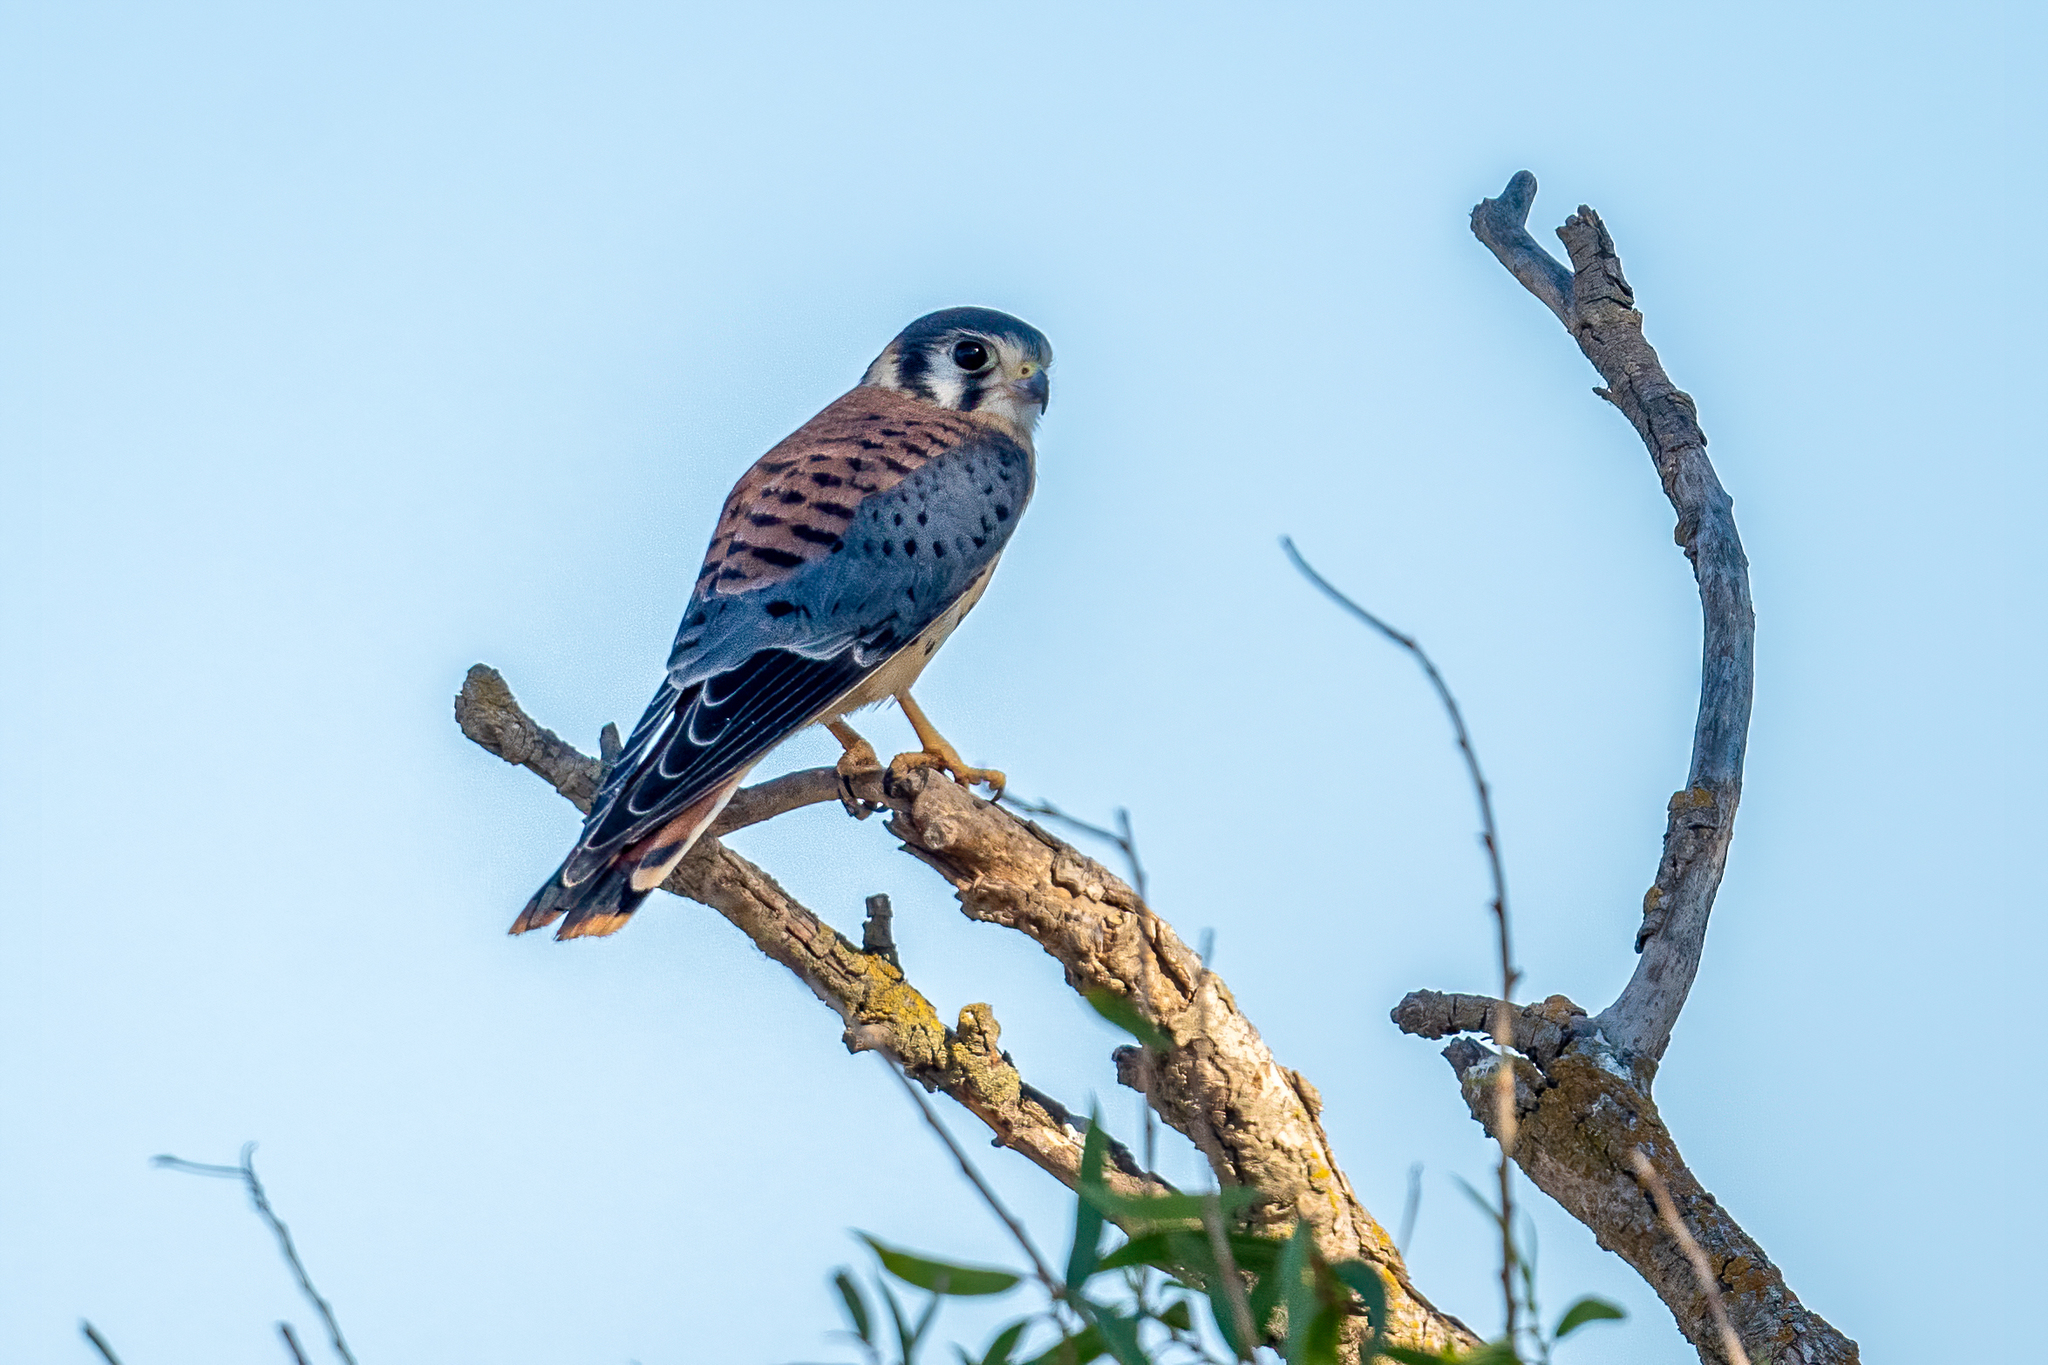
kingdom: Animalia
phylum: Chordata
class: Aves
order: Falconiformes
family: Falconidae
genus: Falco
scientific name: Falco sparverius
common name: American kestrel
